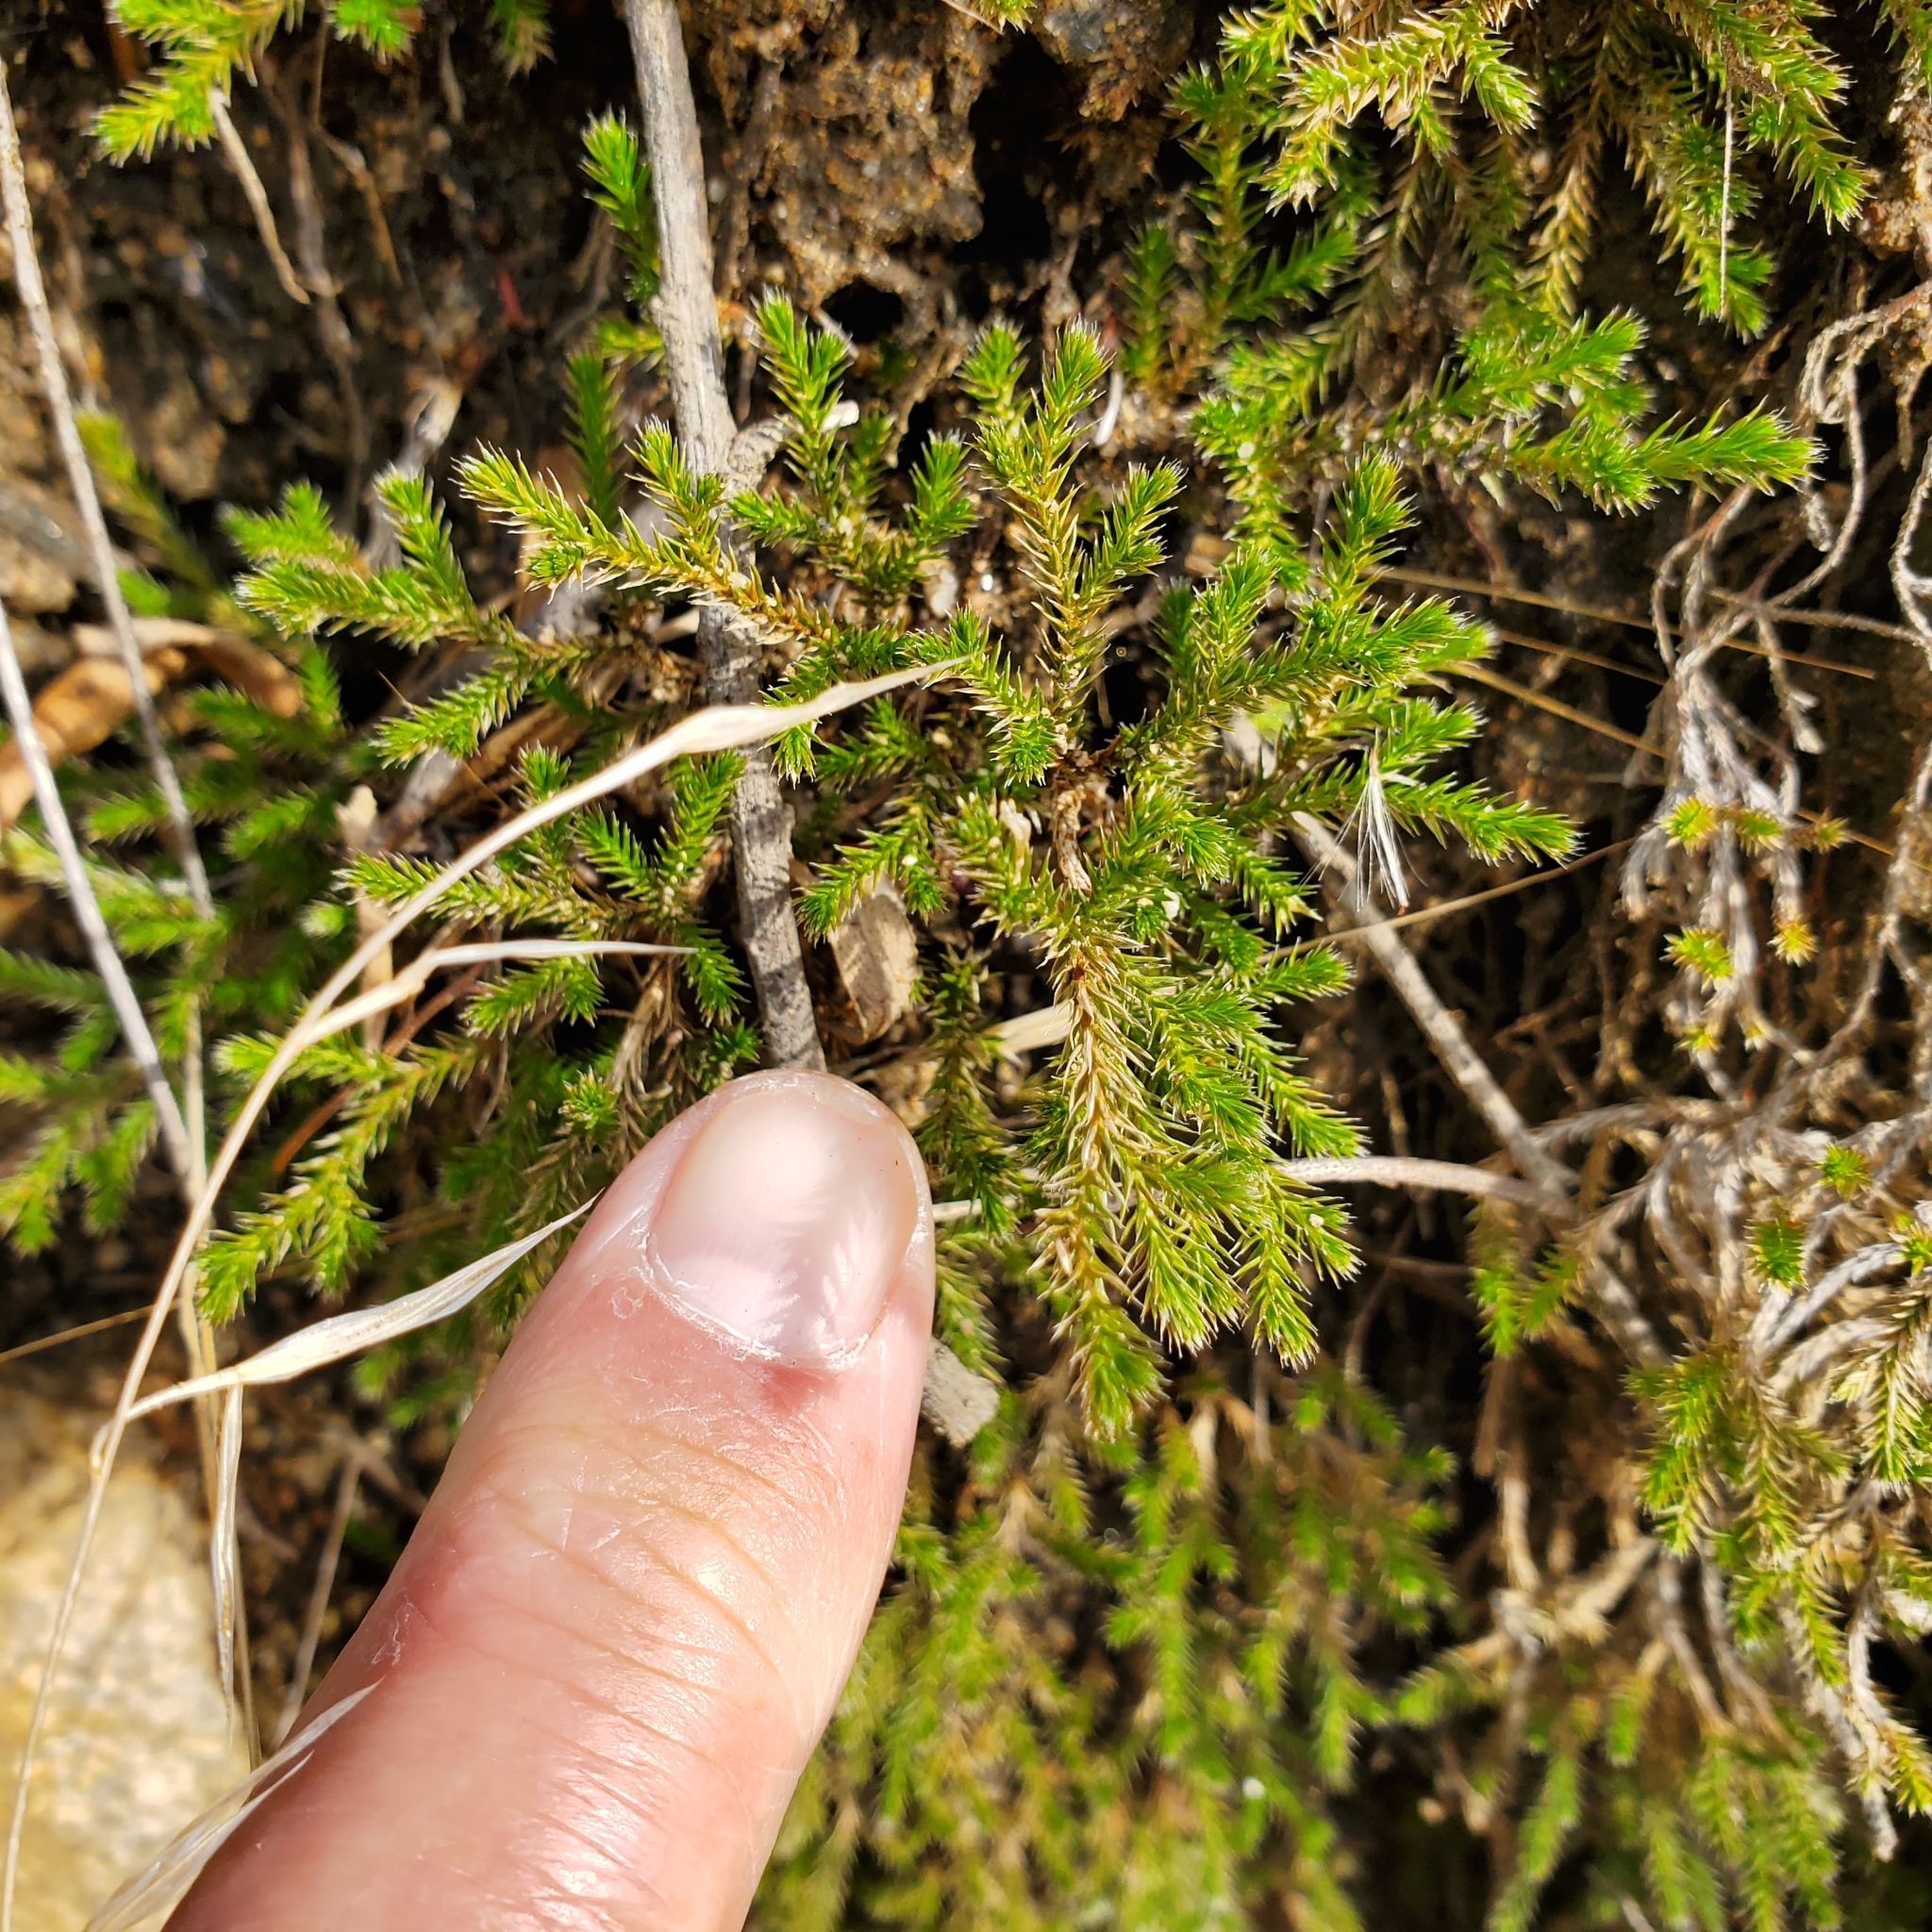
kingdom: Plantae
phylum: Tracheophyta
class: Lycopodiopsida
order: Selaginellales
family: Selaginellaceae
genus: Selaginella
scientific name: Selaginella bigelovii
